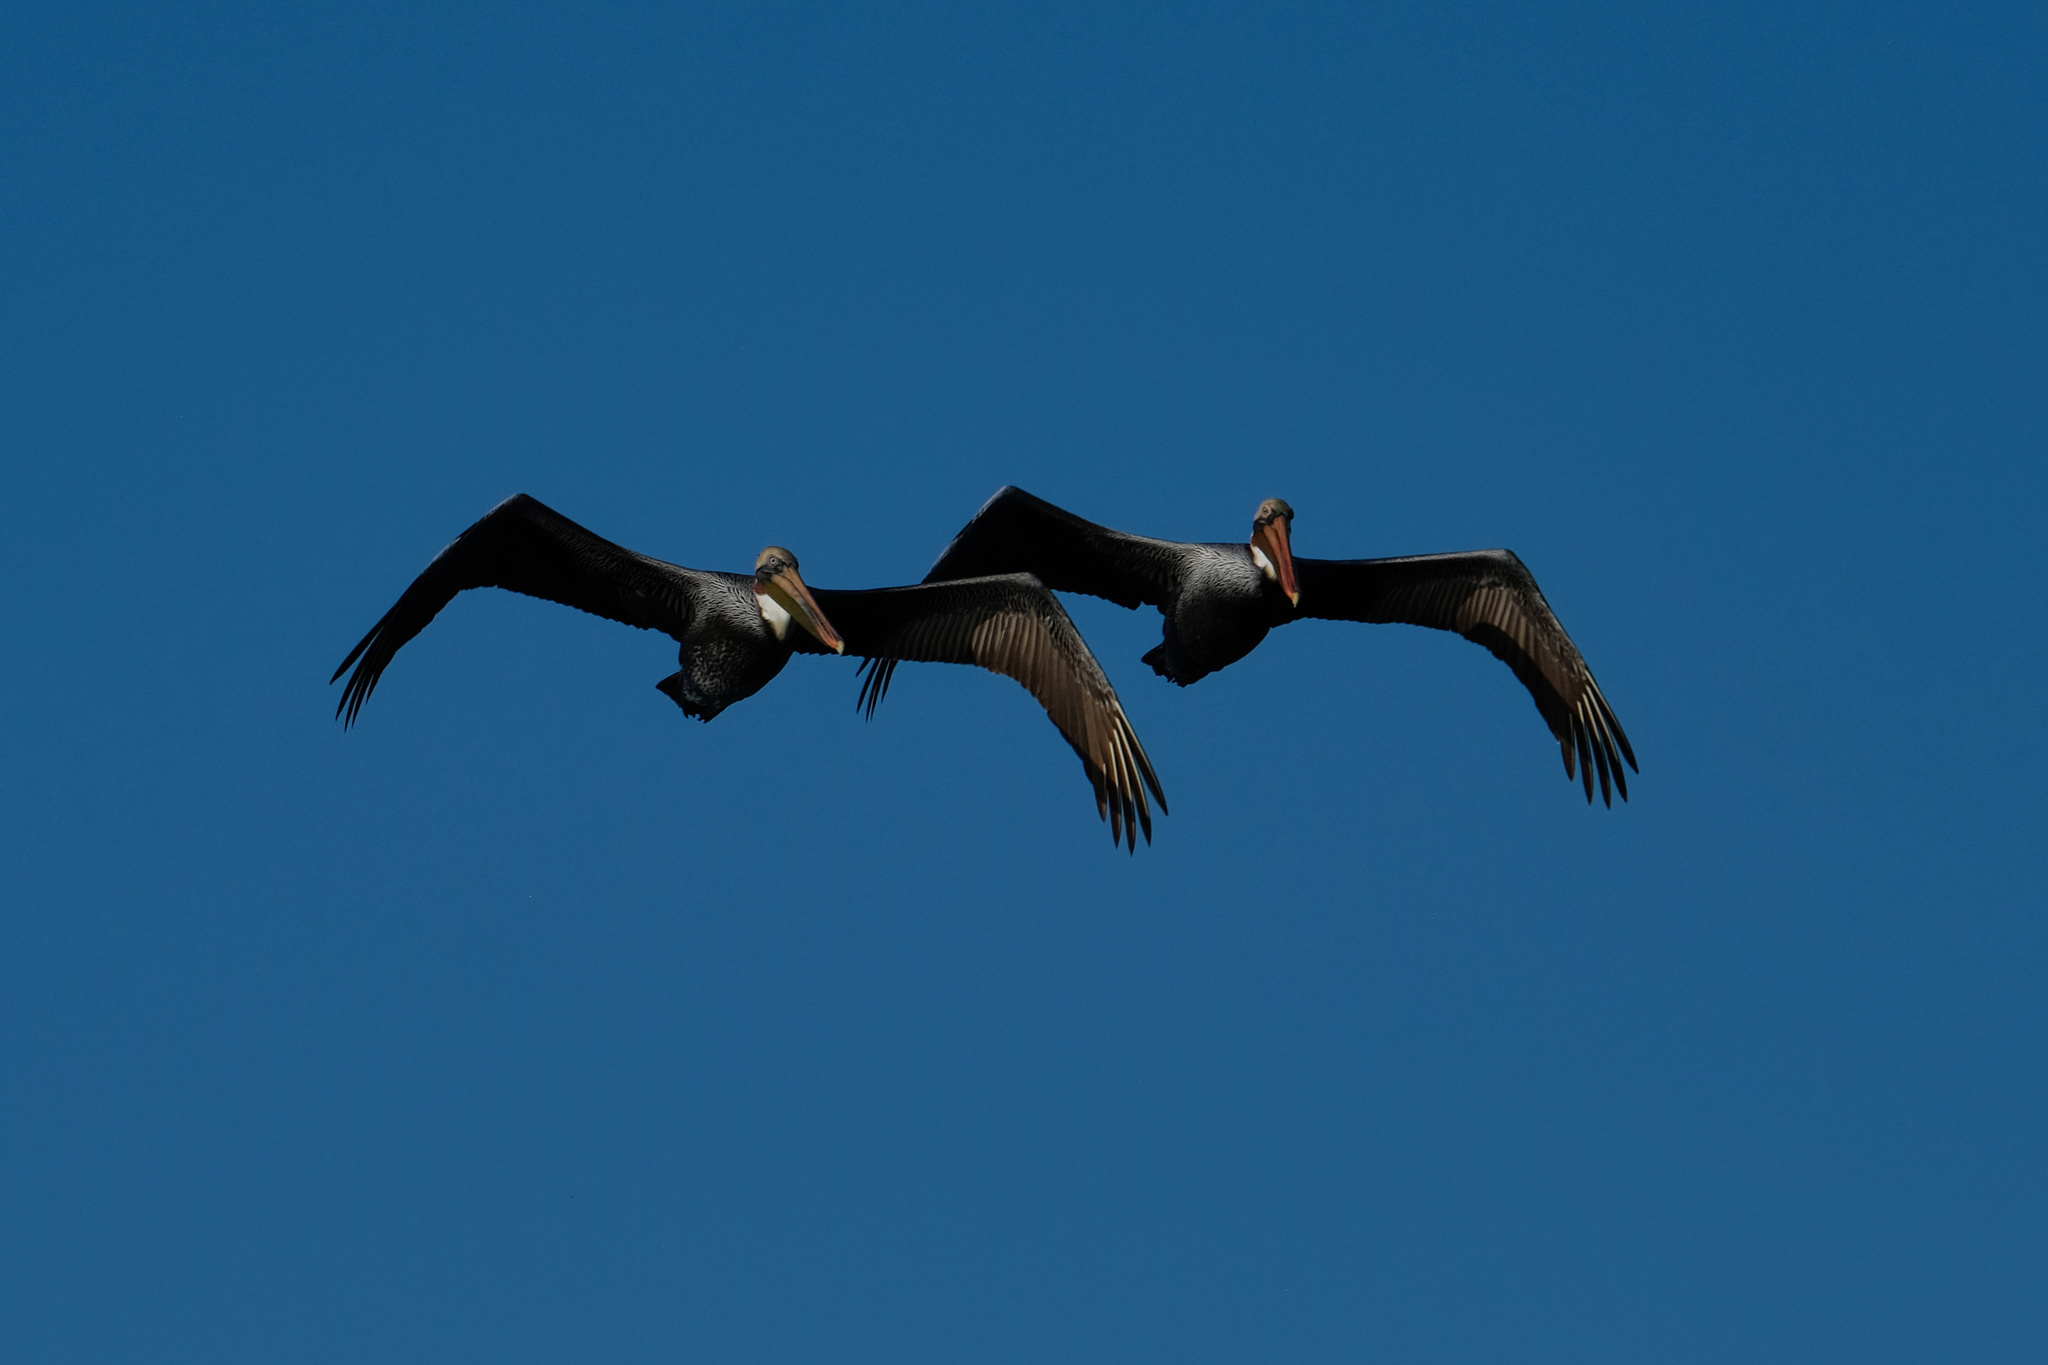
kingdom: Animalia
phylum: Chordata
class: Aves
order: Pelecaniformes
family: Pelecanidae
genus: Pelecanus
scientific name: Pelecanus occidentalis
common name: Brown pelican
